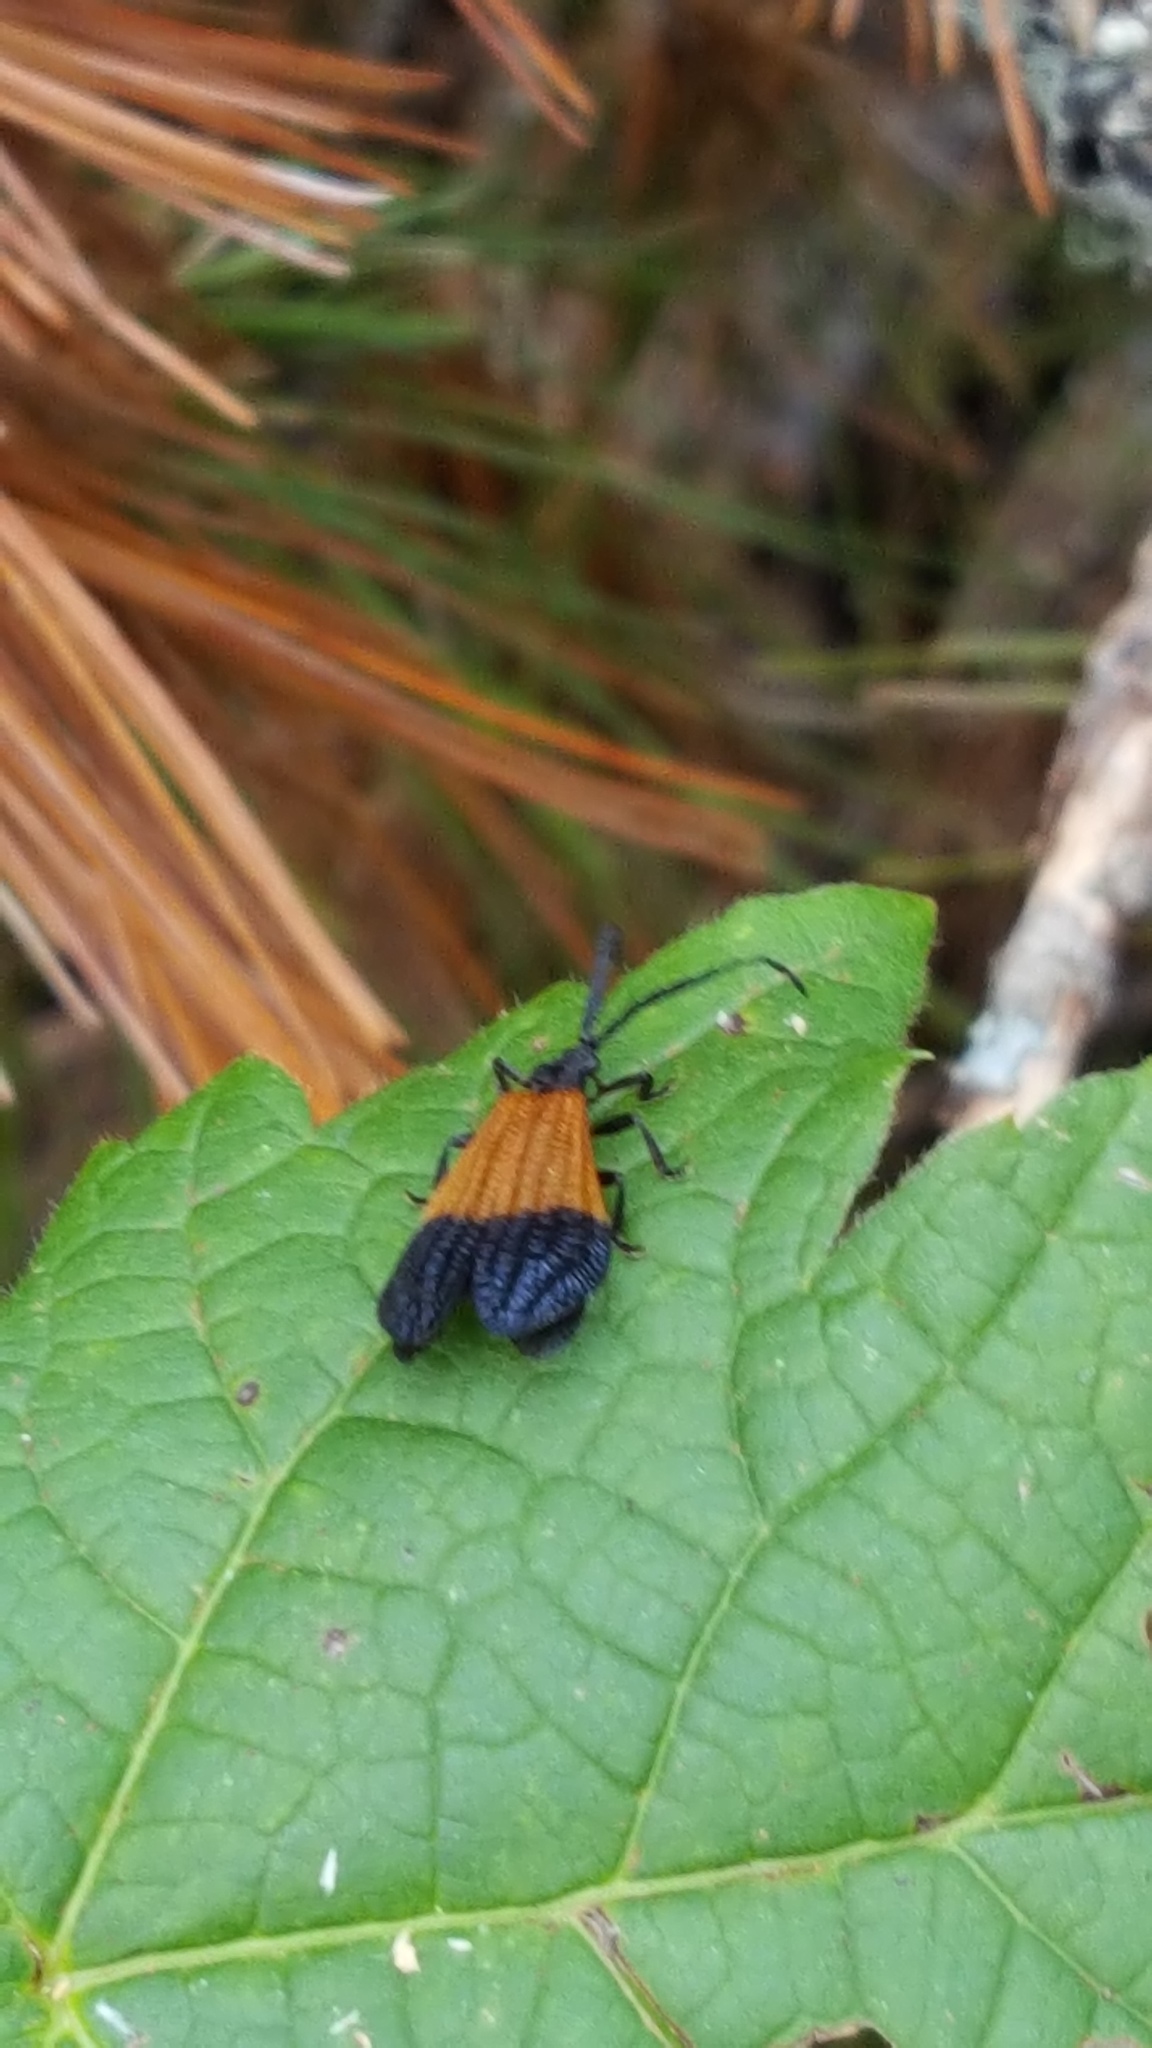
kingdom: Animalia
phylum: Arthropoda
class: Insecta
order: Coleoptera
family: Lycidae
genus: Calopteron
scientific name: Calopteron terminale
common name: End band net-winged beetle
